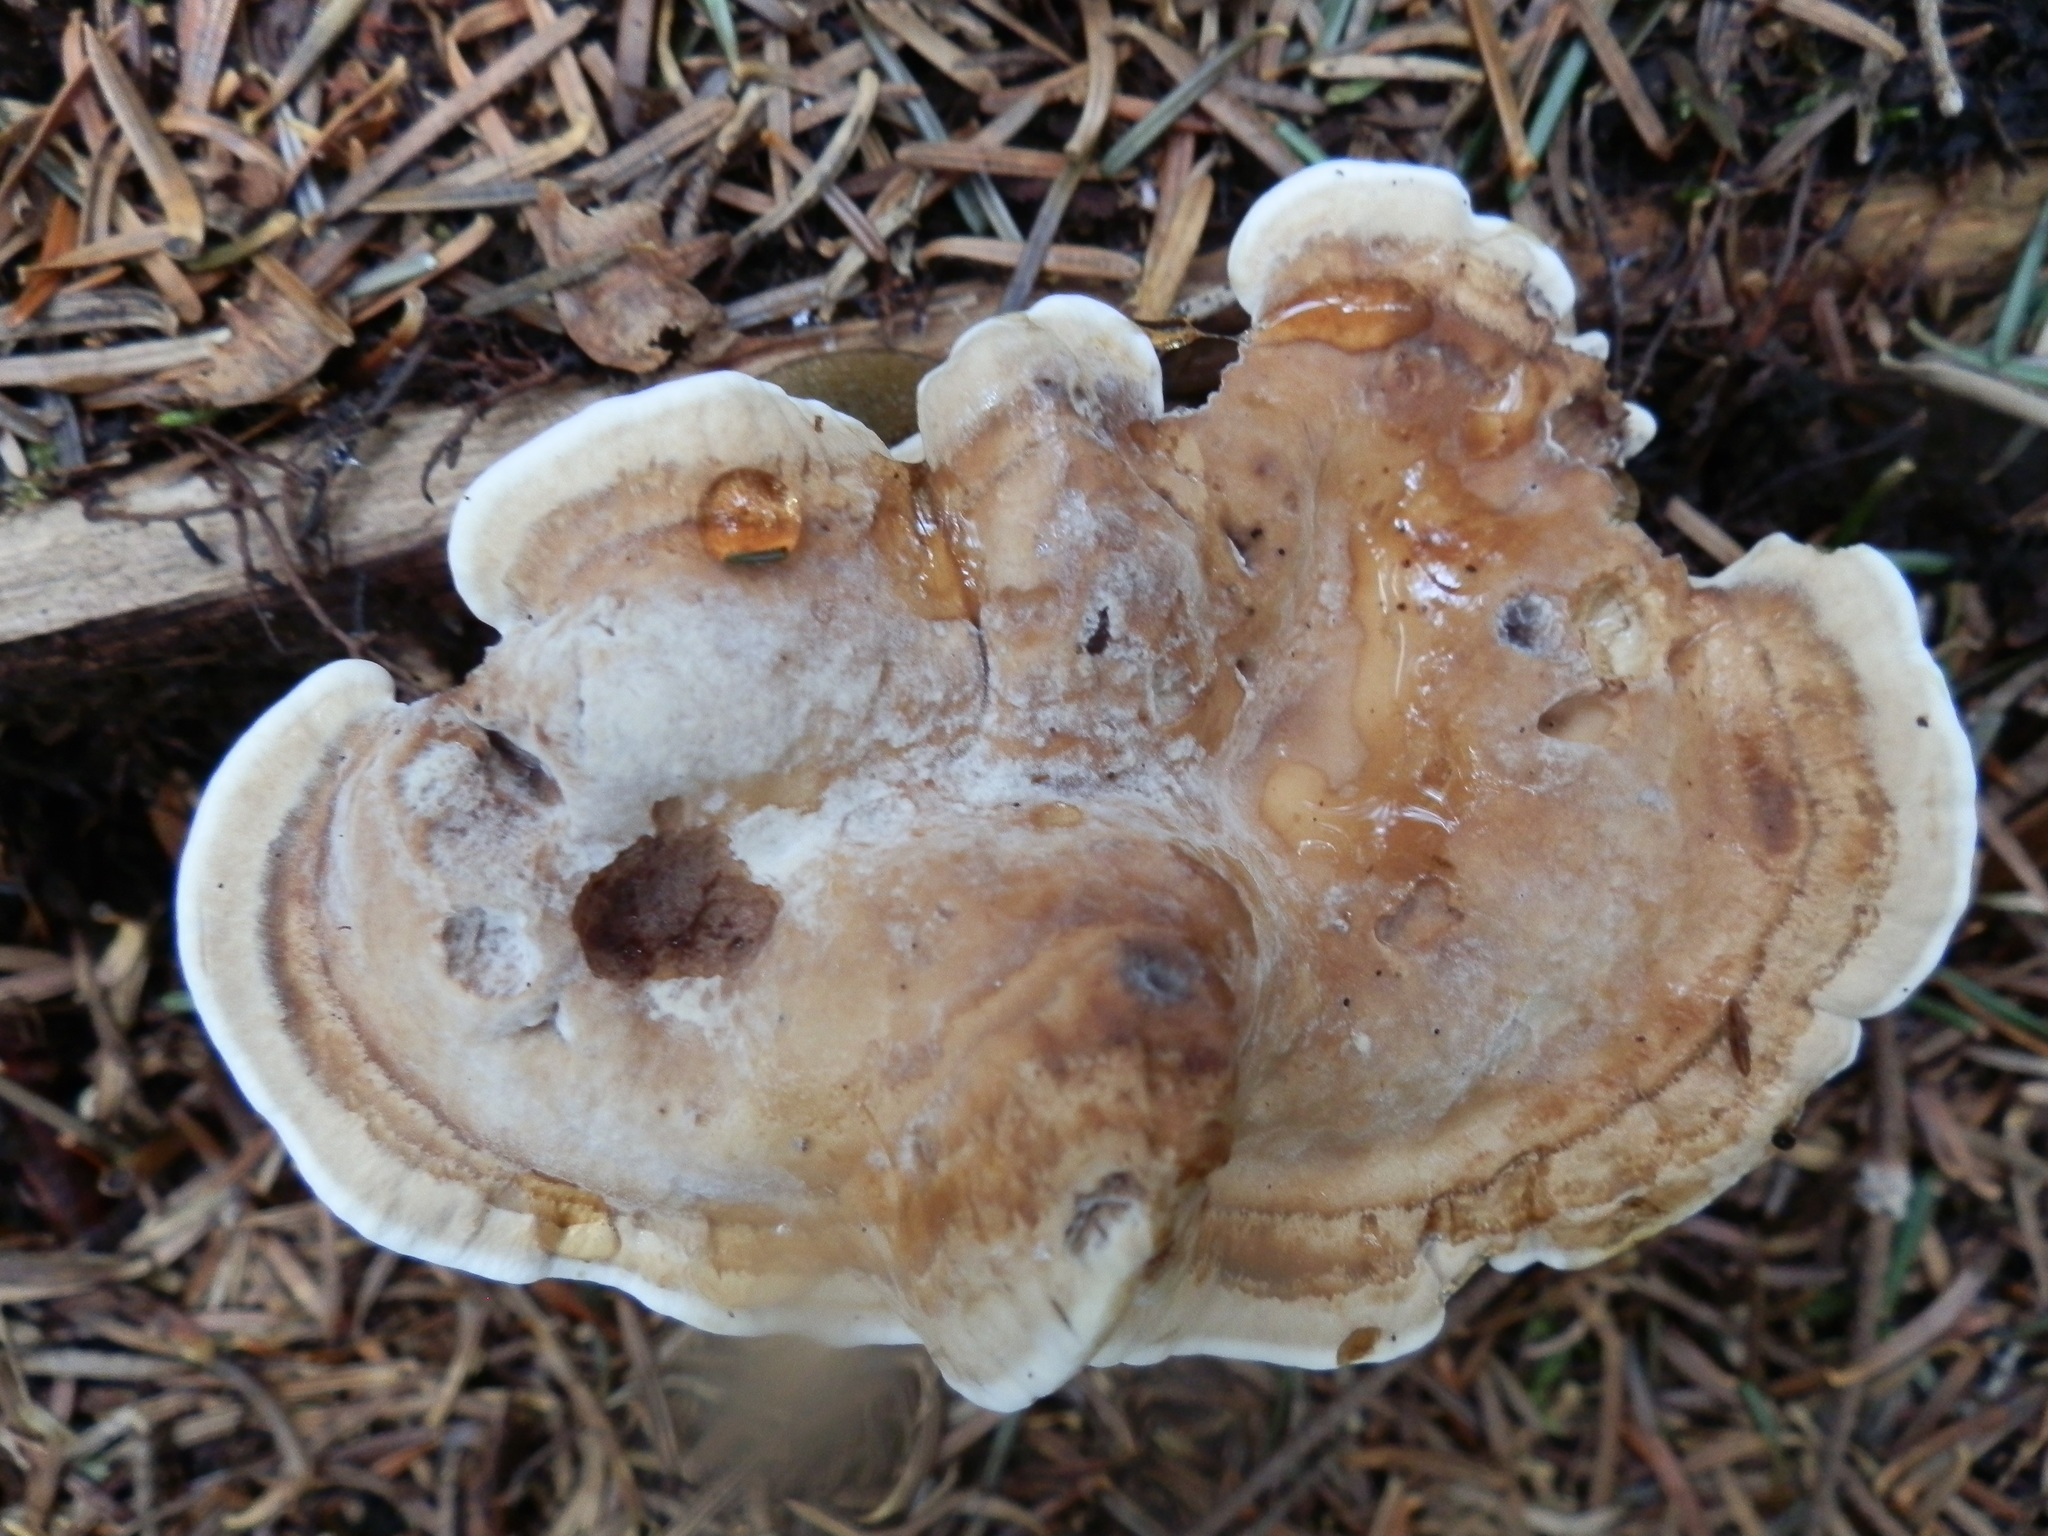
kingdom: Fungi
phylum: Basidiomycota
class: Agaricomycetes
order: Thelephorales
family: Thelephoraceae
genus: Phellodon
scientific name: Phellodon fuligineoalbus
